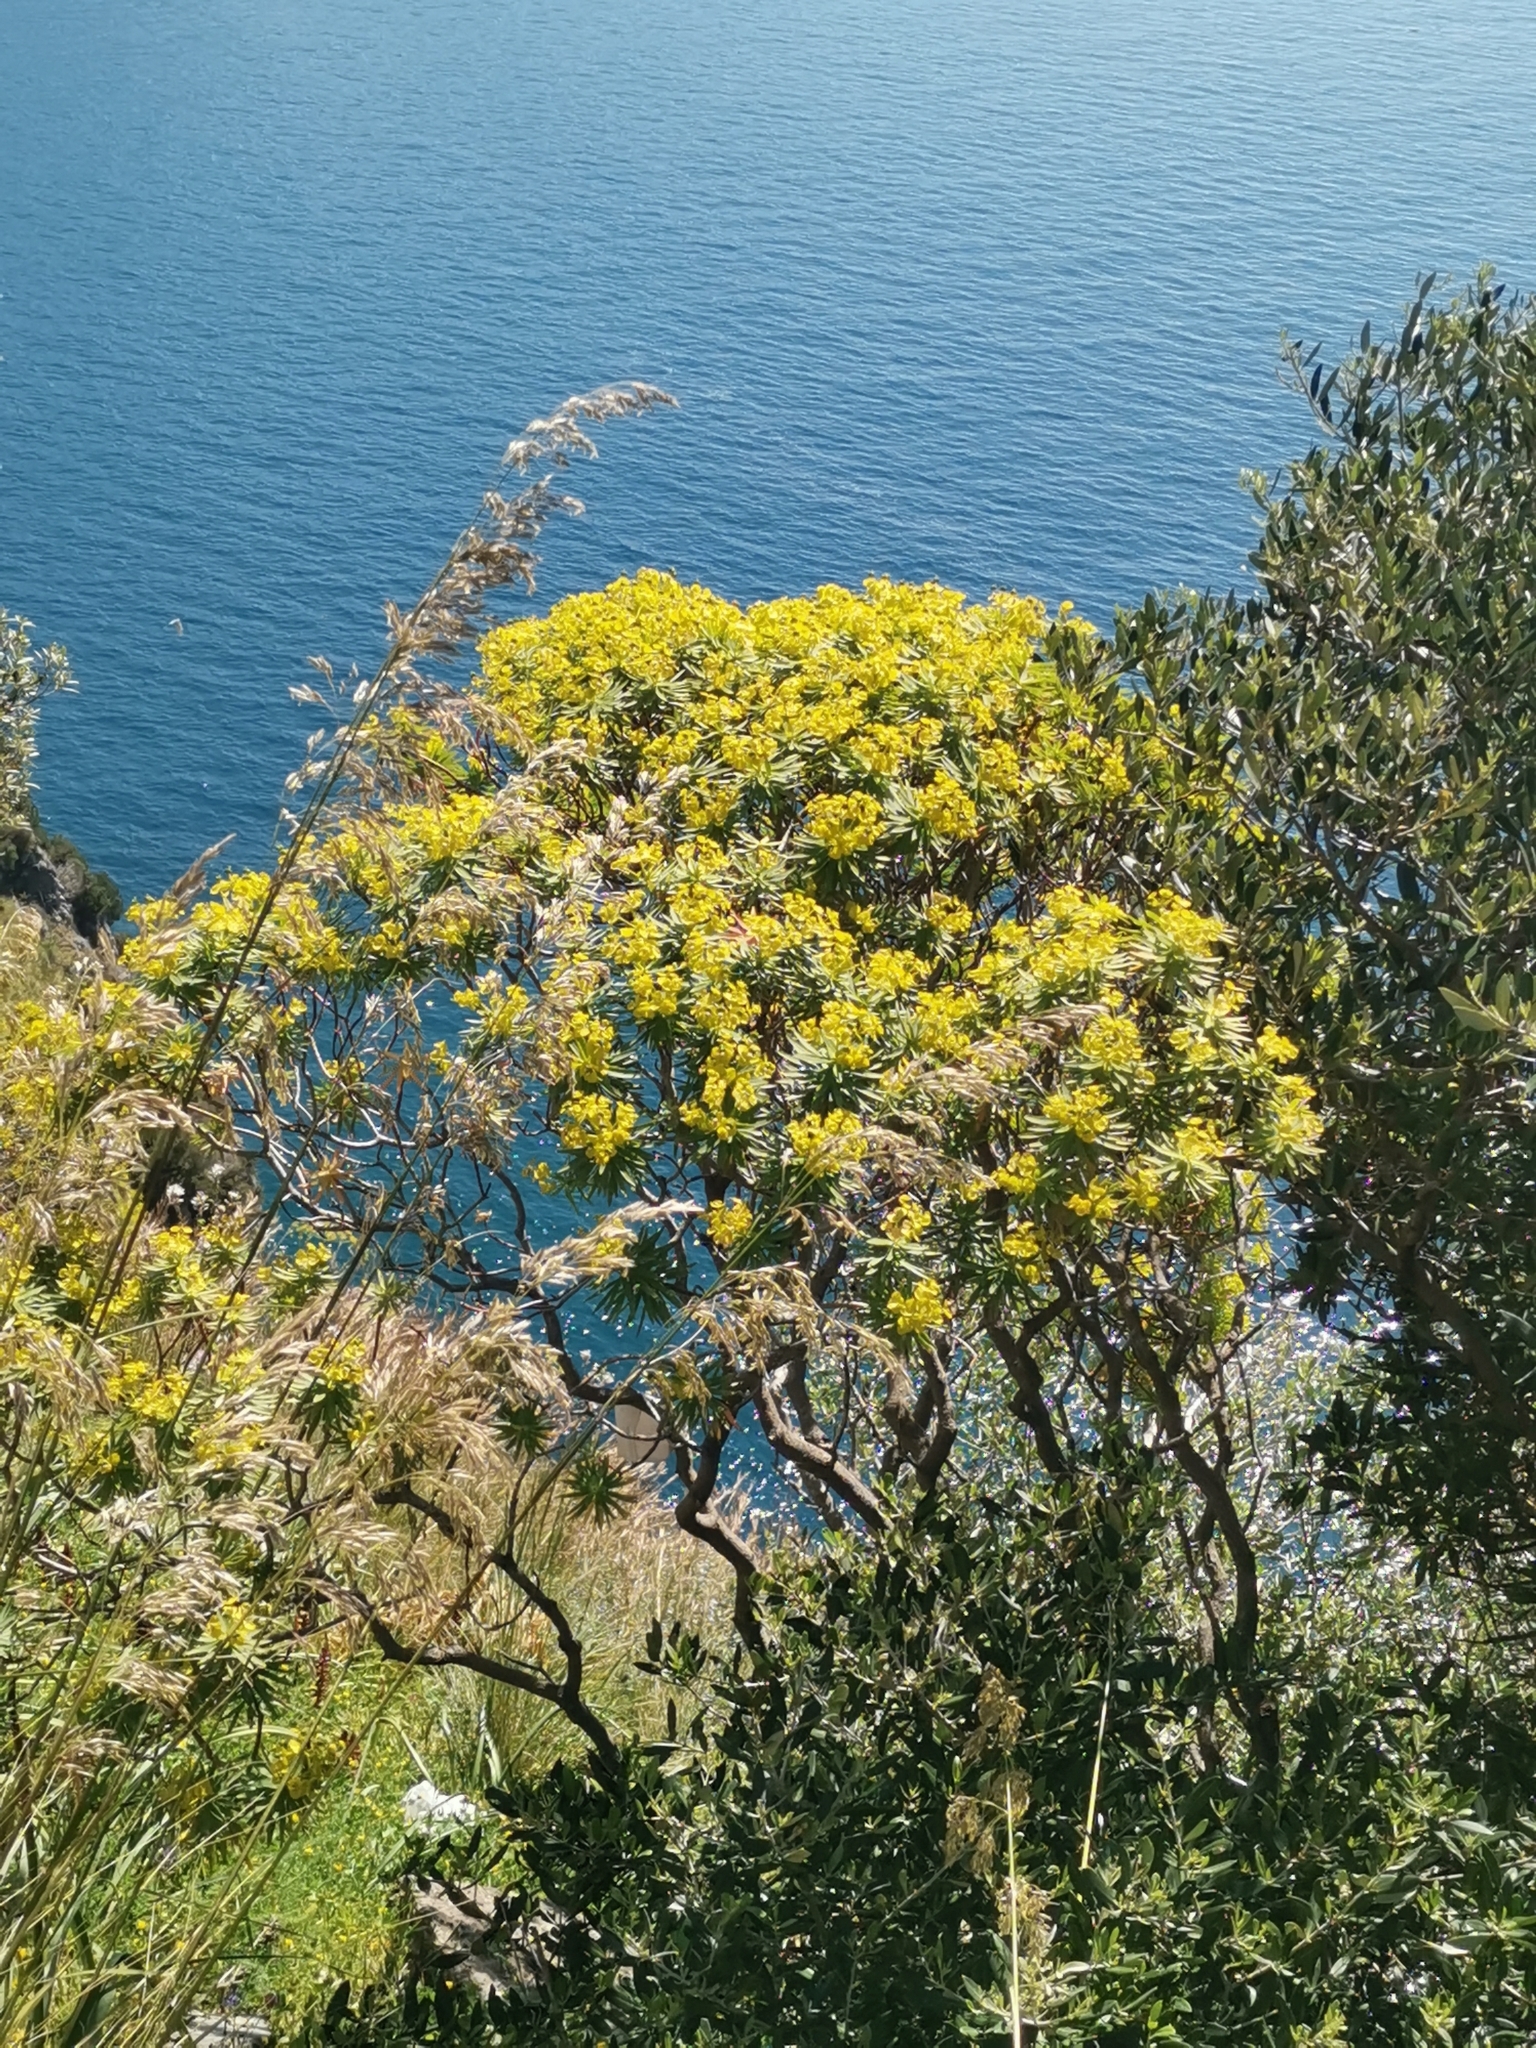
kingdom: Plantae
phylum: Tracheophyta
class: Magnoliopsida
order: Malpighiales
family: Euphorbiaceae
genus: Euphorbia
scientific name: Euphorbia dendroides
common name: Tree spurge
